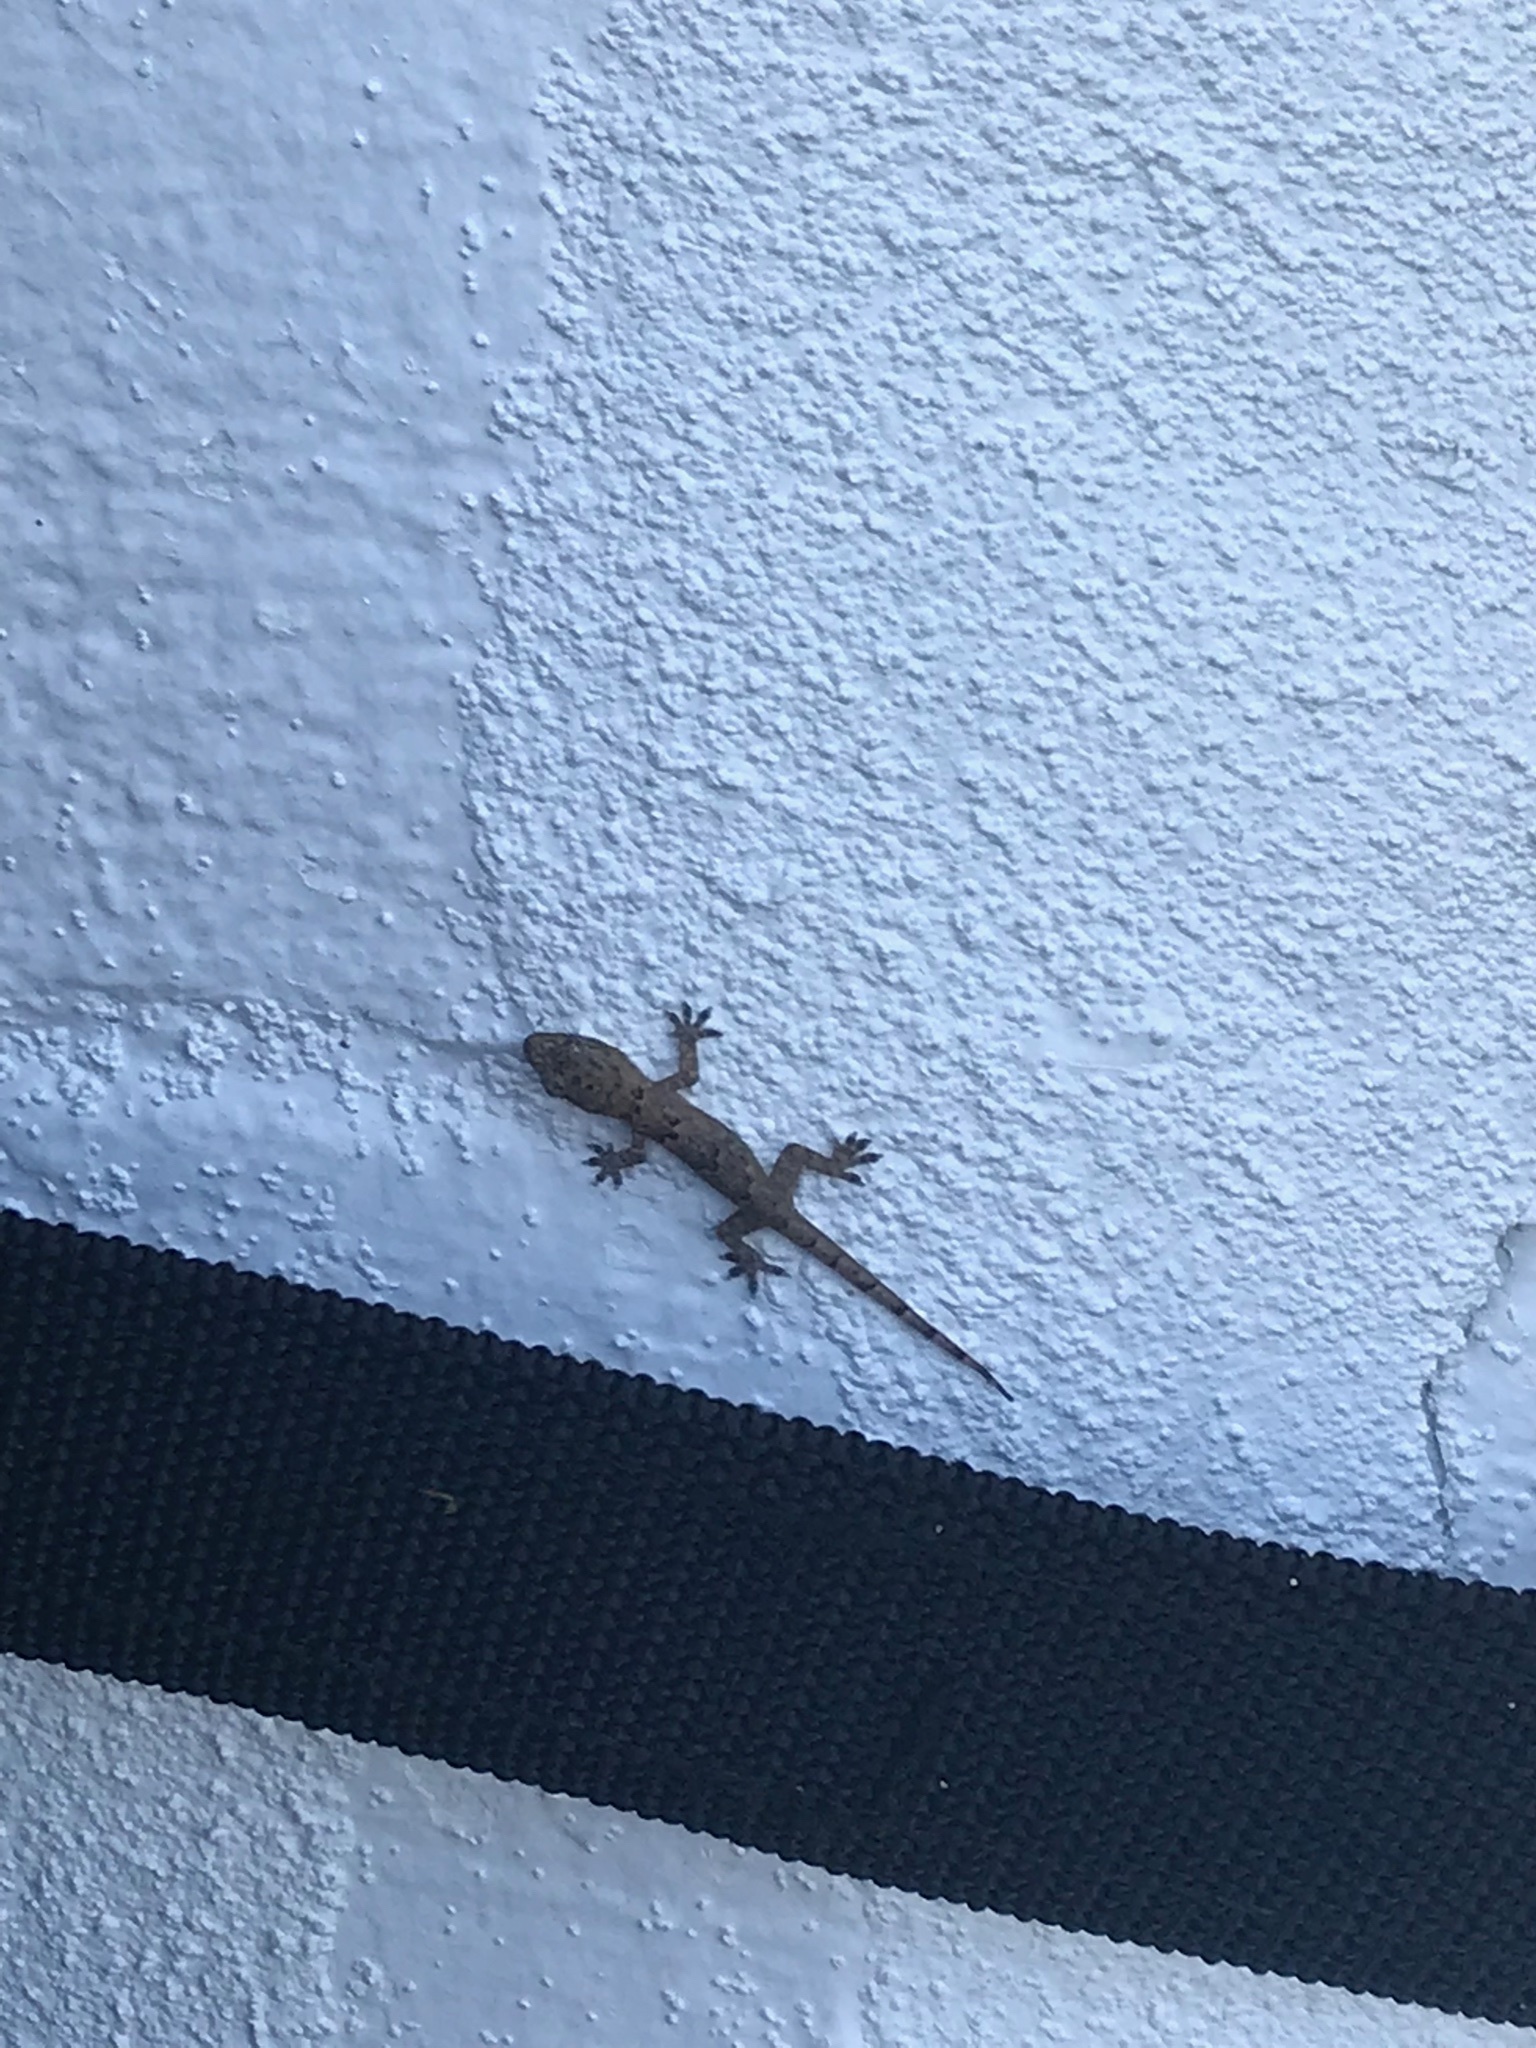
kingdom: Animalia
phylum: Chordata
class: Squamata
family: Gekkonidae
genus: Hemidactylus
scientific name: Hemidactylus mabouia
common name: House gecko
